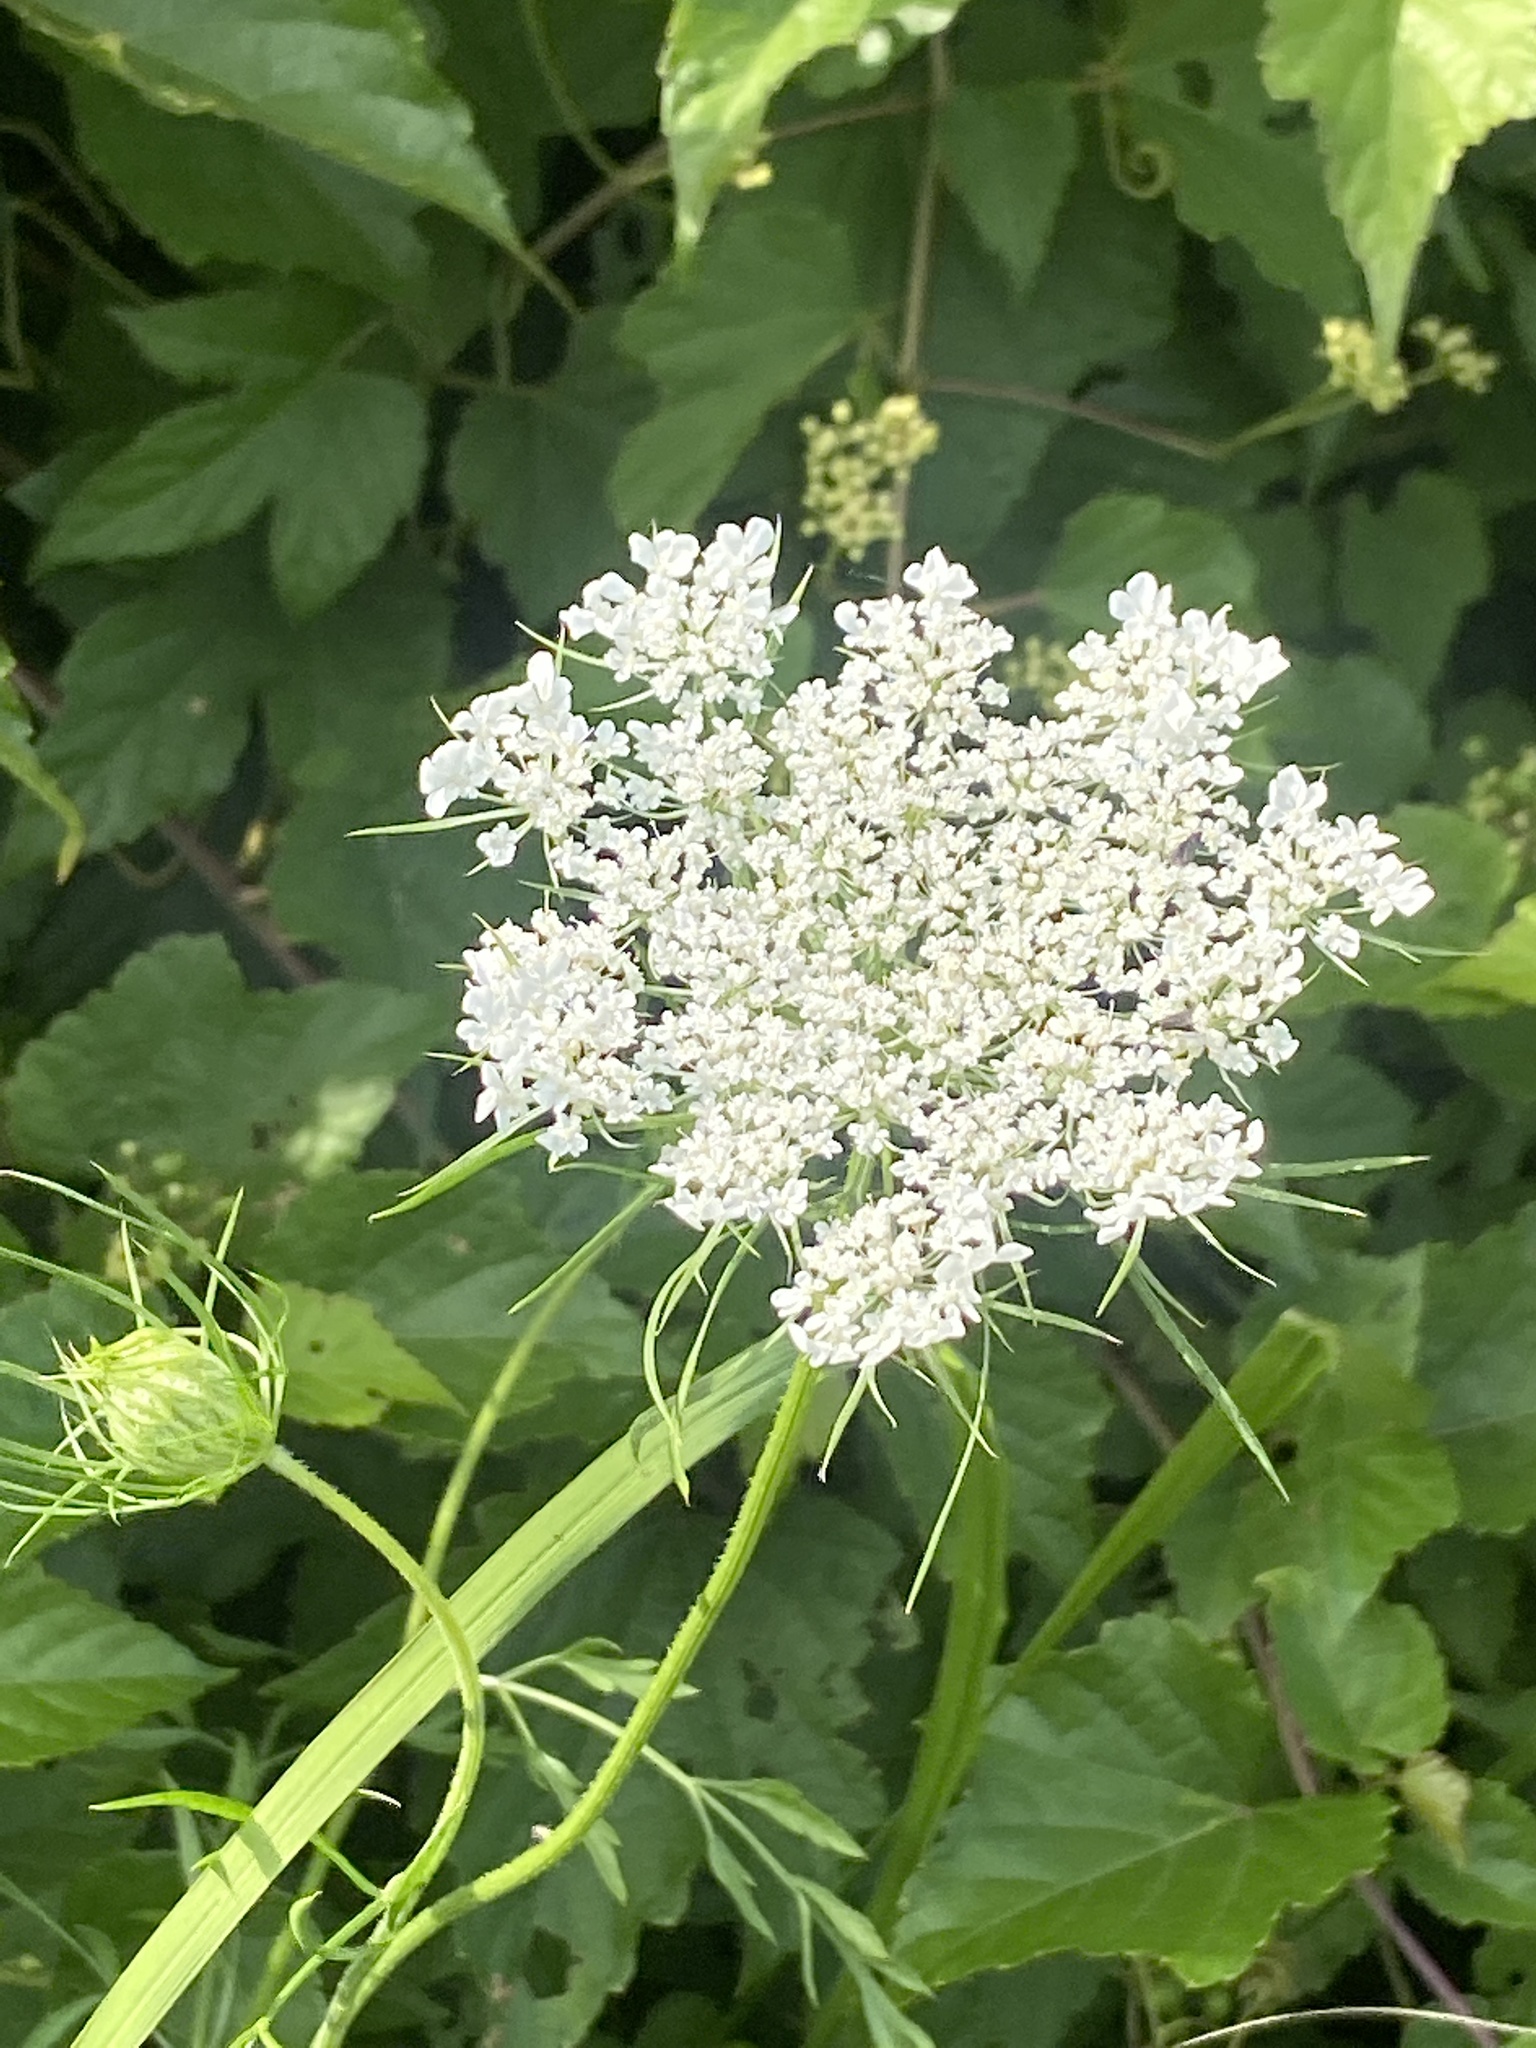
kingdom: Plantae
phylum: Tracheophyta
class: Magnoliopsida
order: Apiales
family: Apiaceae
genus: Daucus
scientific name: Daucus carota
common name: Wild carrot
